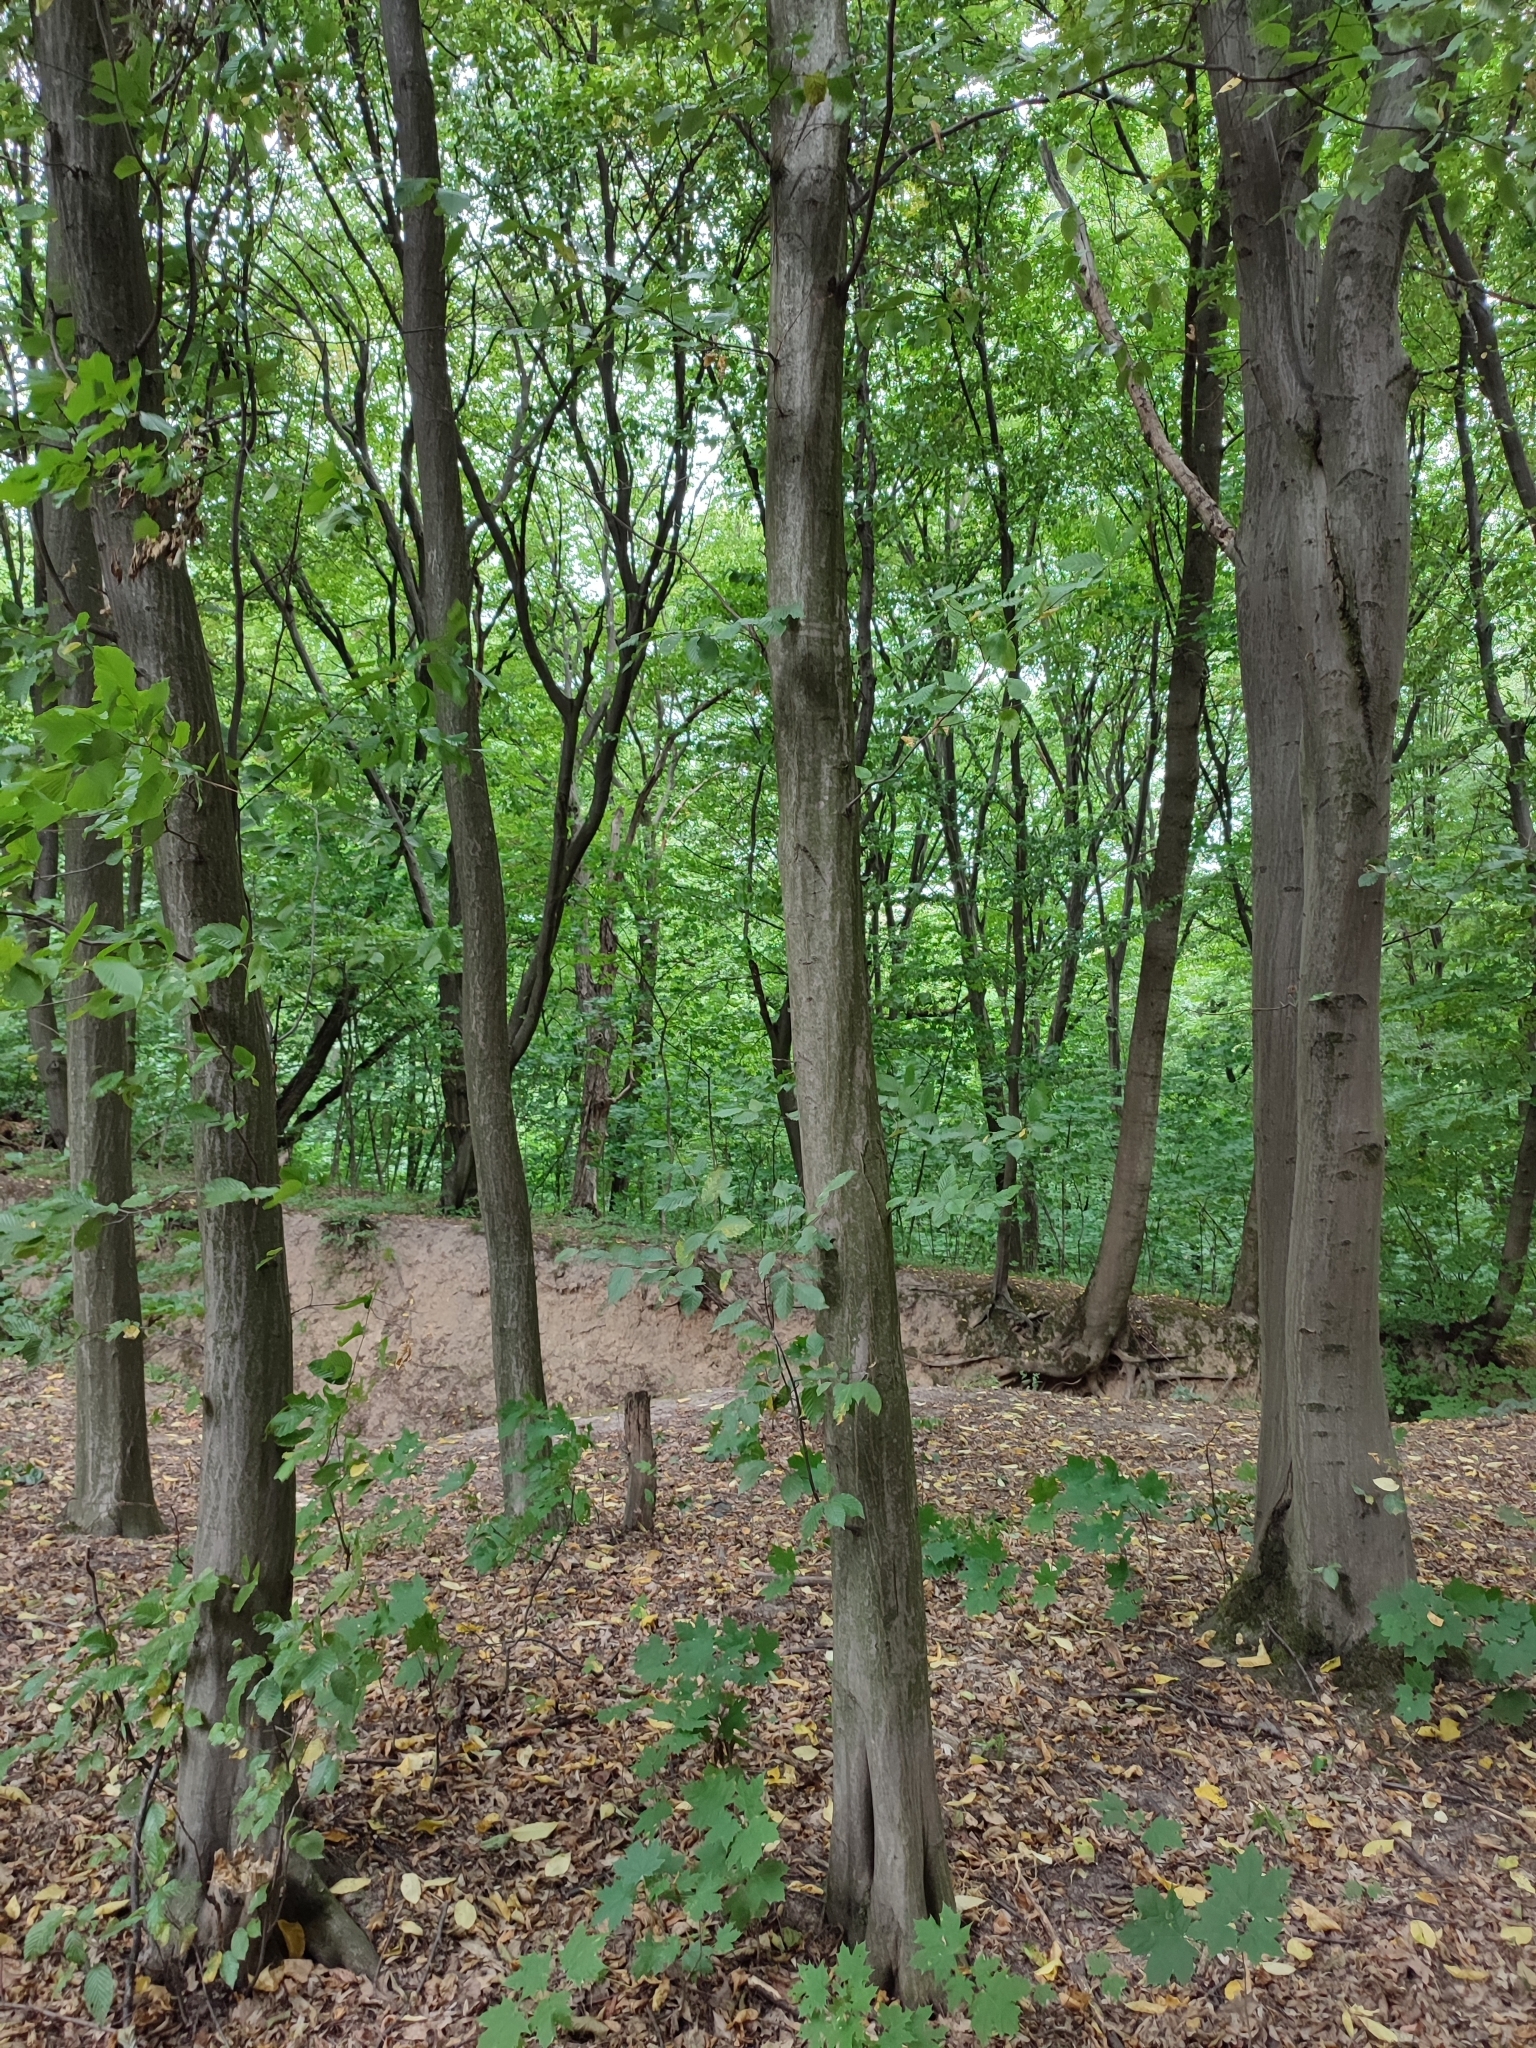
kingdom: Plantae
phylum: Tracheophyta
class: Magnoliopsida
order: Fagales
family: Betulaceae
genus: Carpinus
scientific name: Carpinus betulus
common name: Hornbeam
